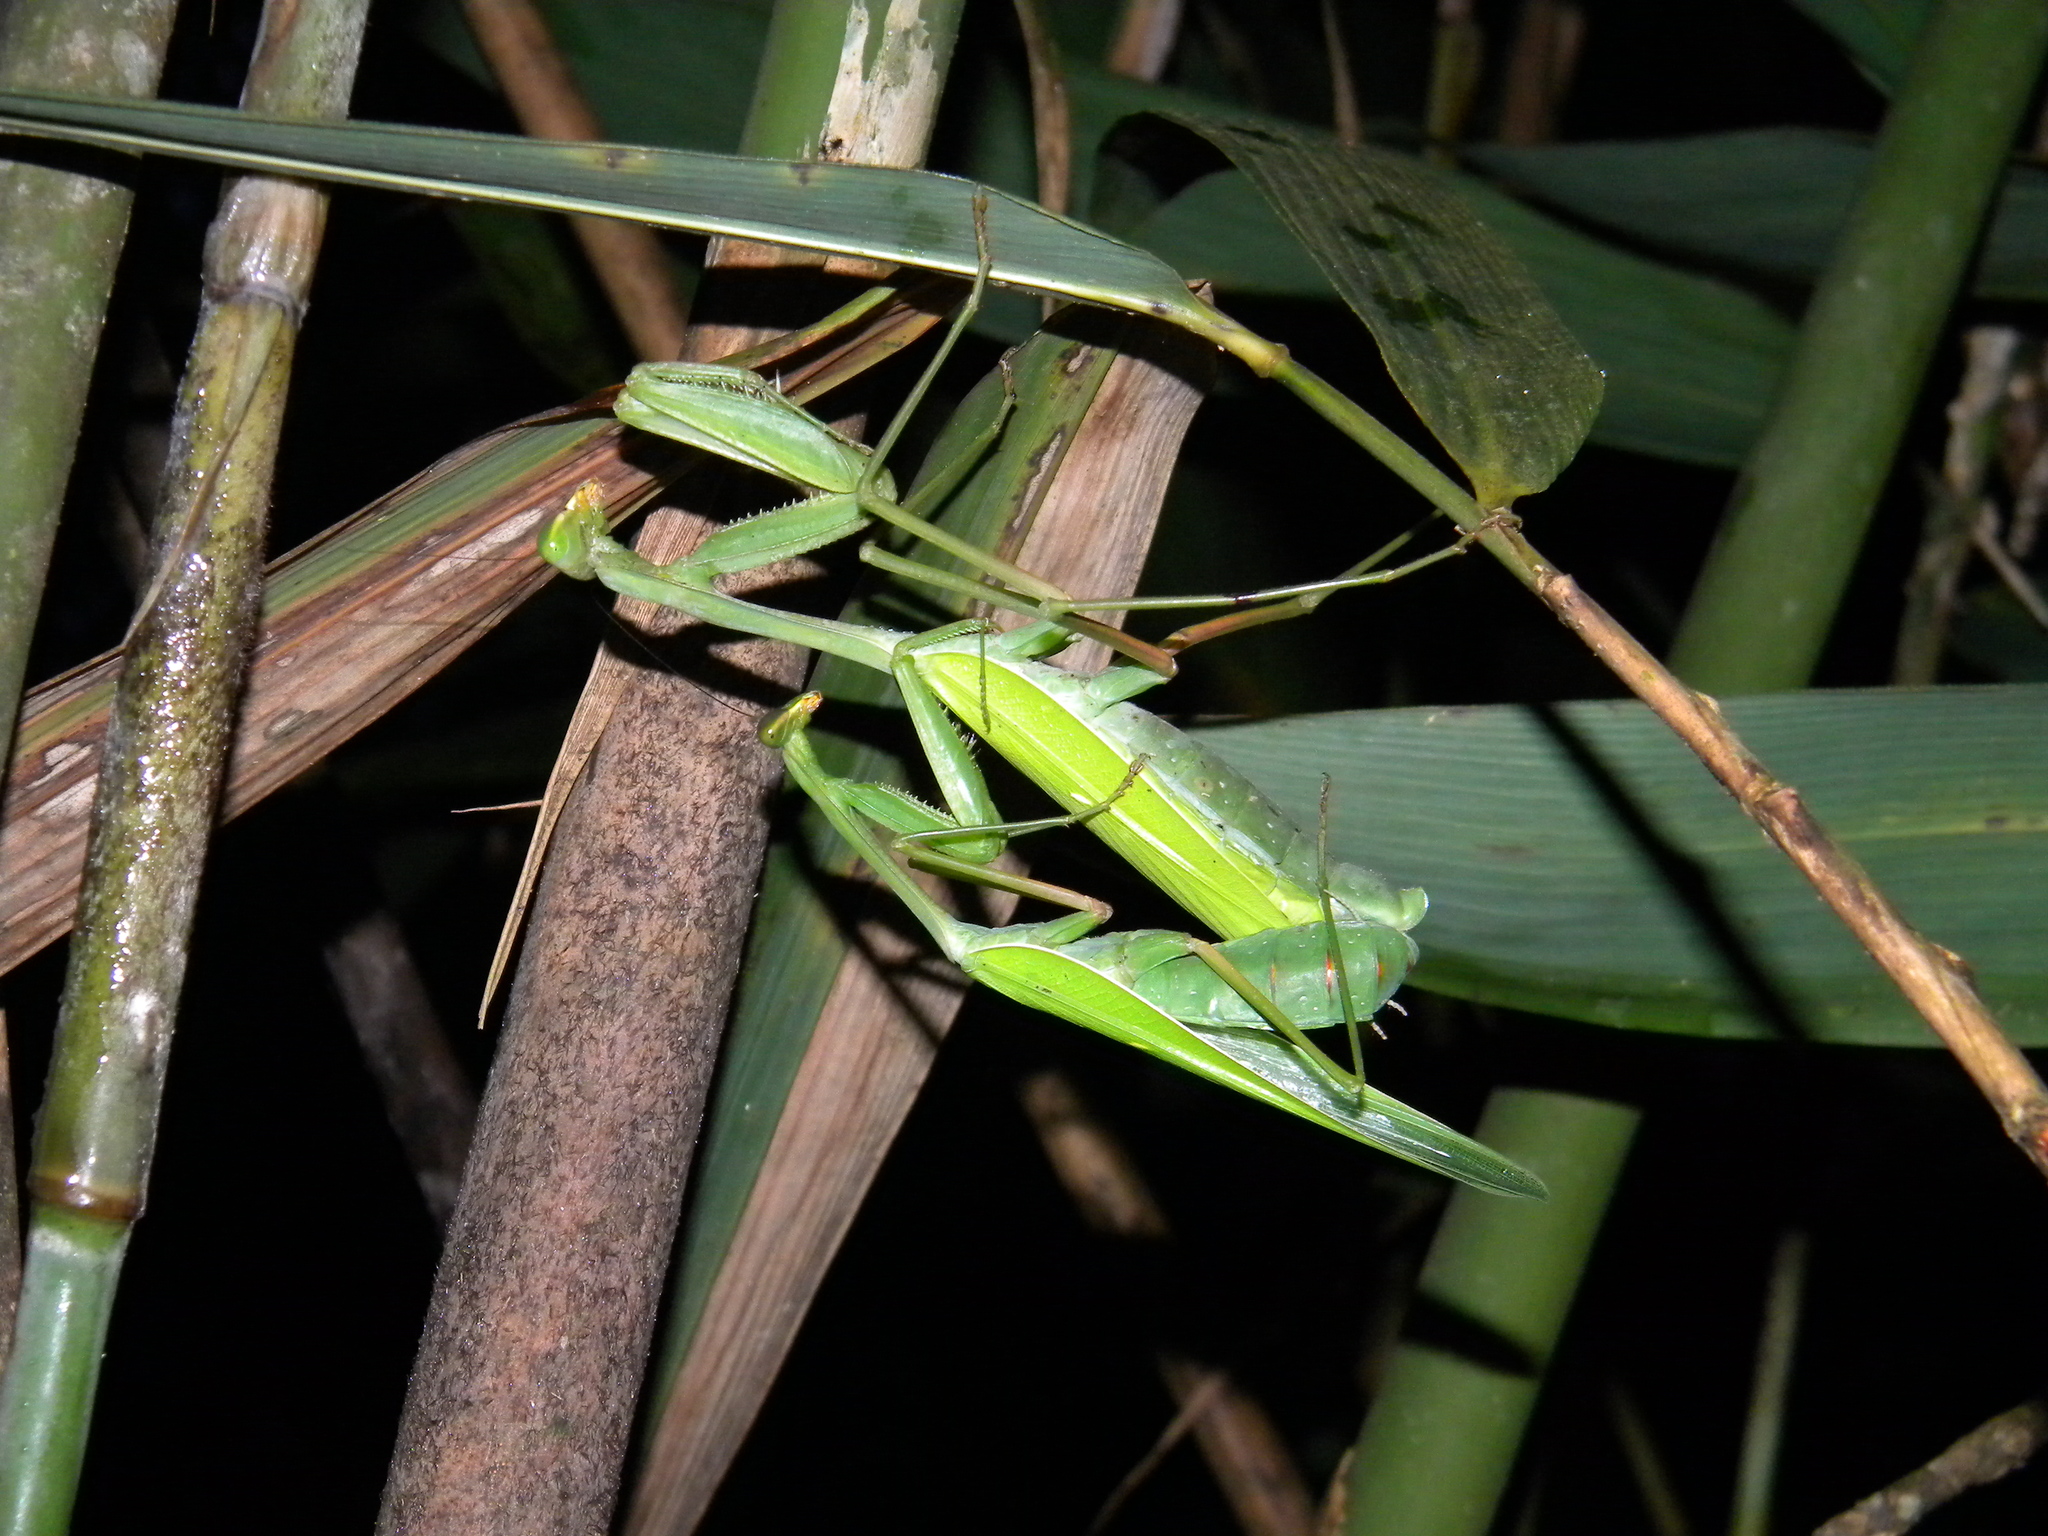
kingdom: Animalia
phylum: Arthropoda
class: Insecta
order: Mantodea
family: Mantidae
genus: Hierodula
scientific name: Hierodula membranacea
